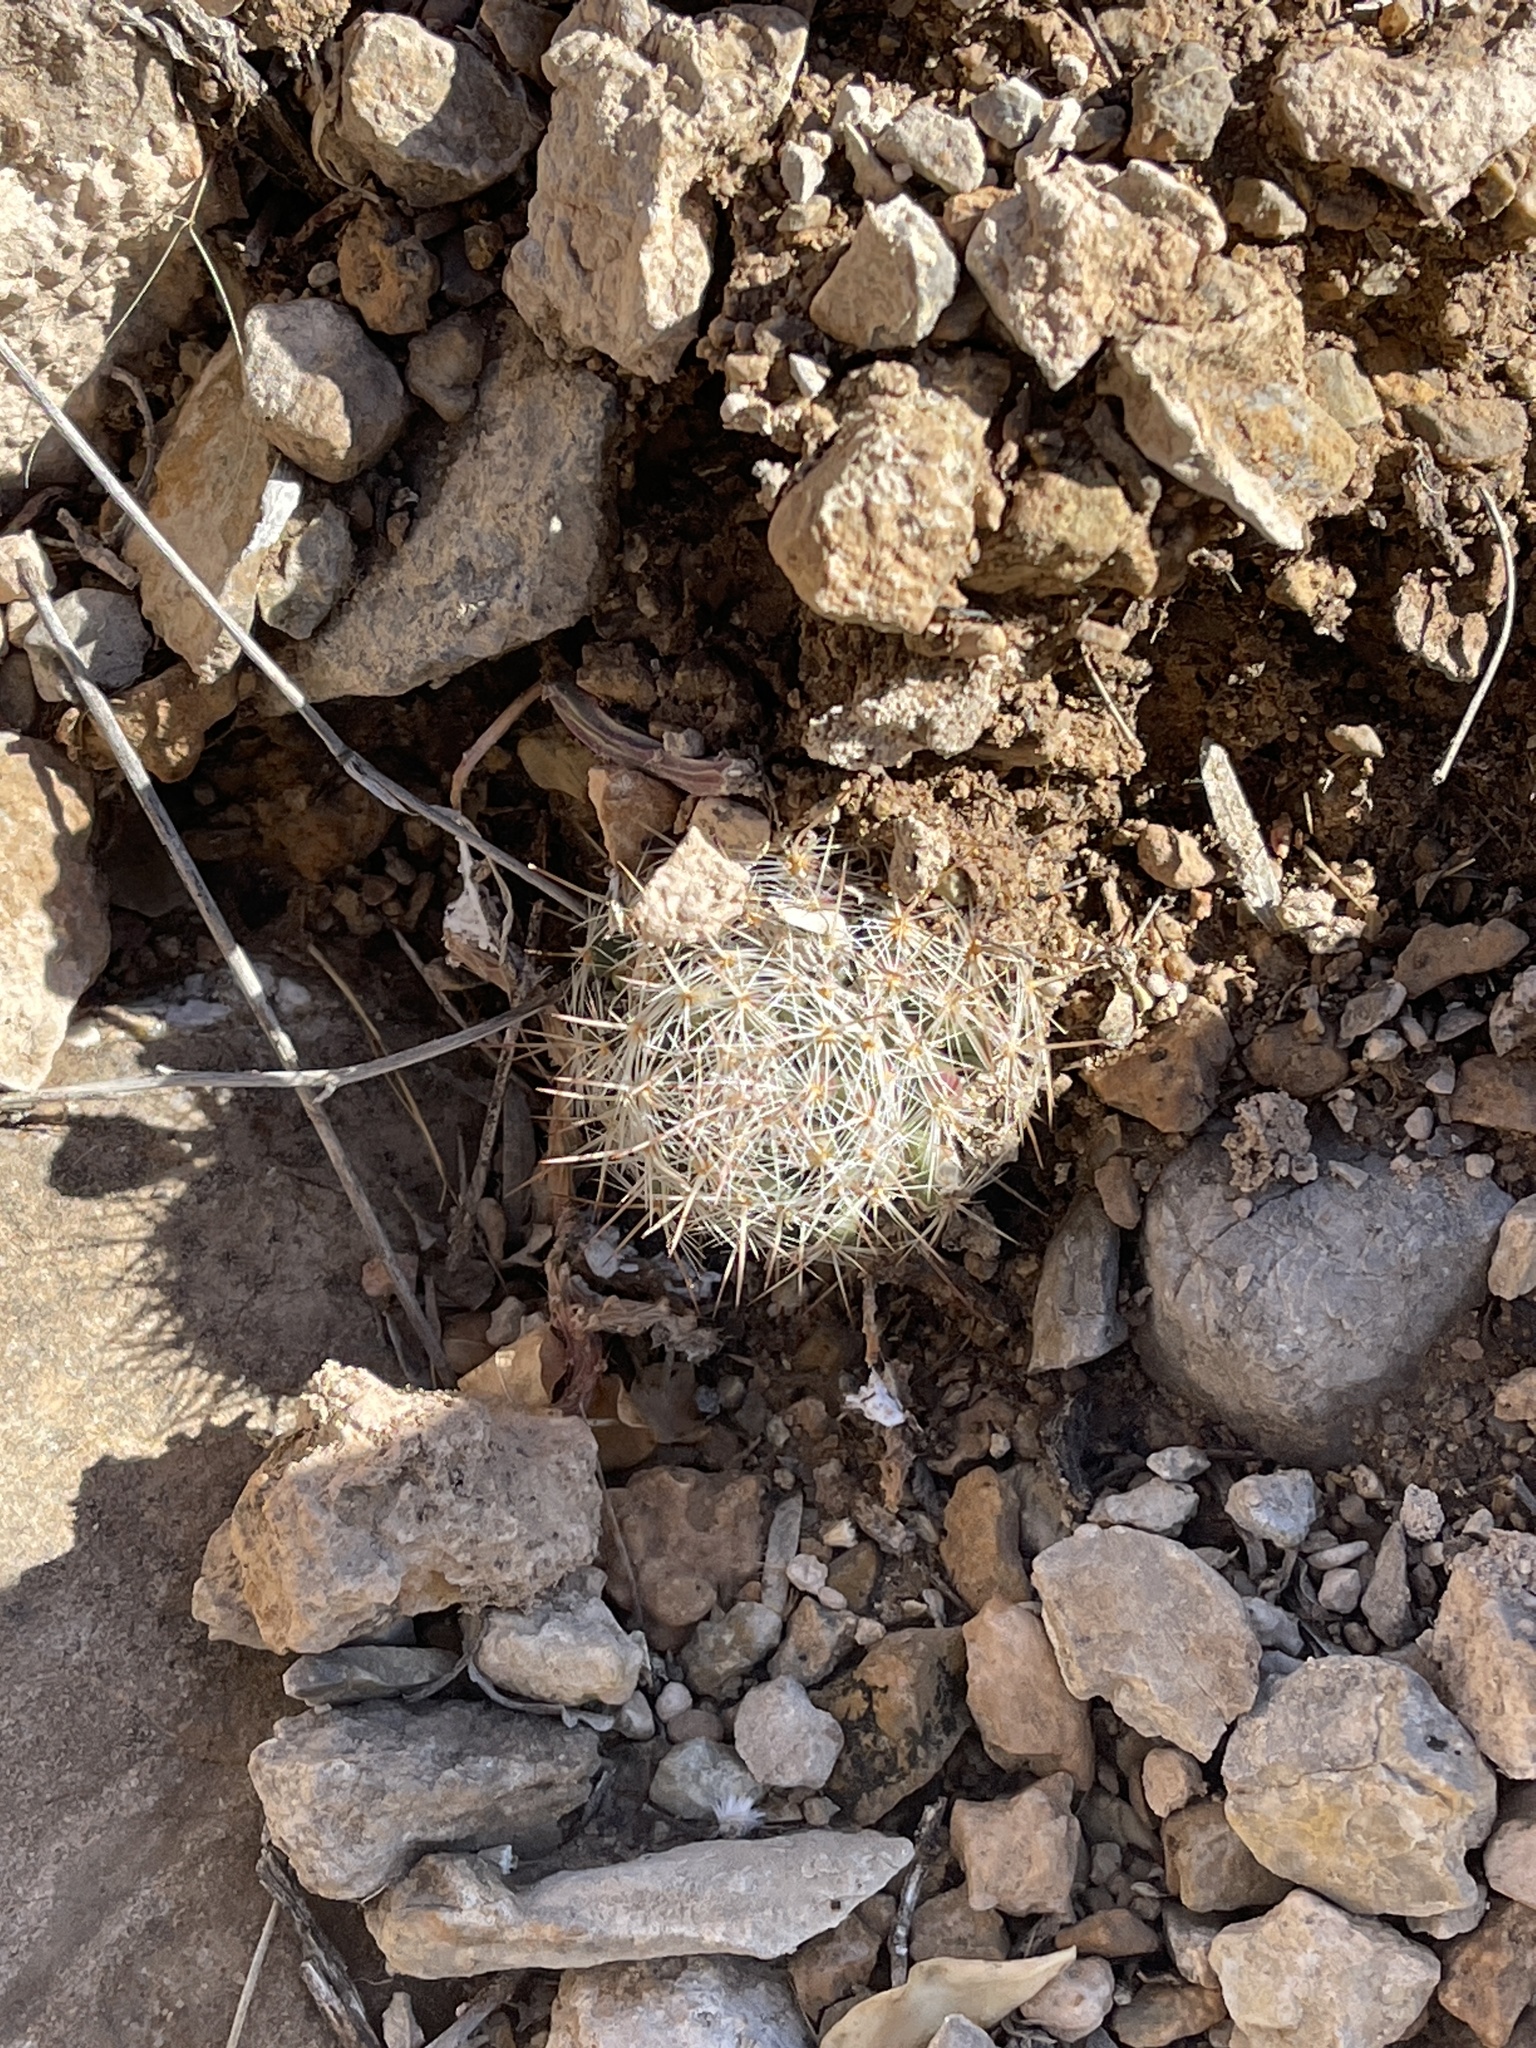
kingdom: Plantae
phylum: Tracheophyta
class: Magnoliopsida
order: Caryophyllales
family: Cactaceae
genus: Pelecyphora
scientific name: Pelecyphora tuberculosa
